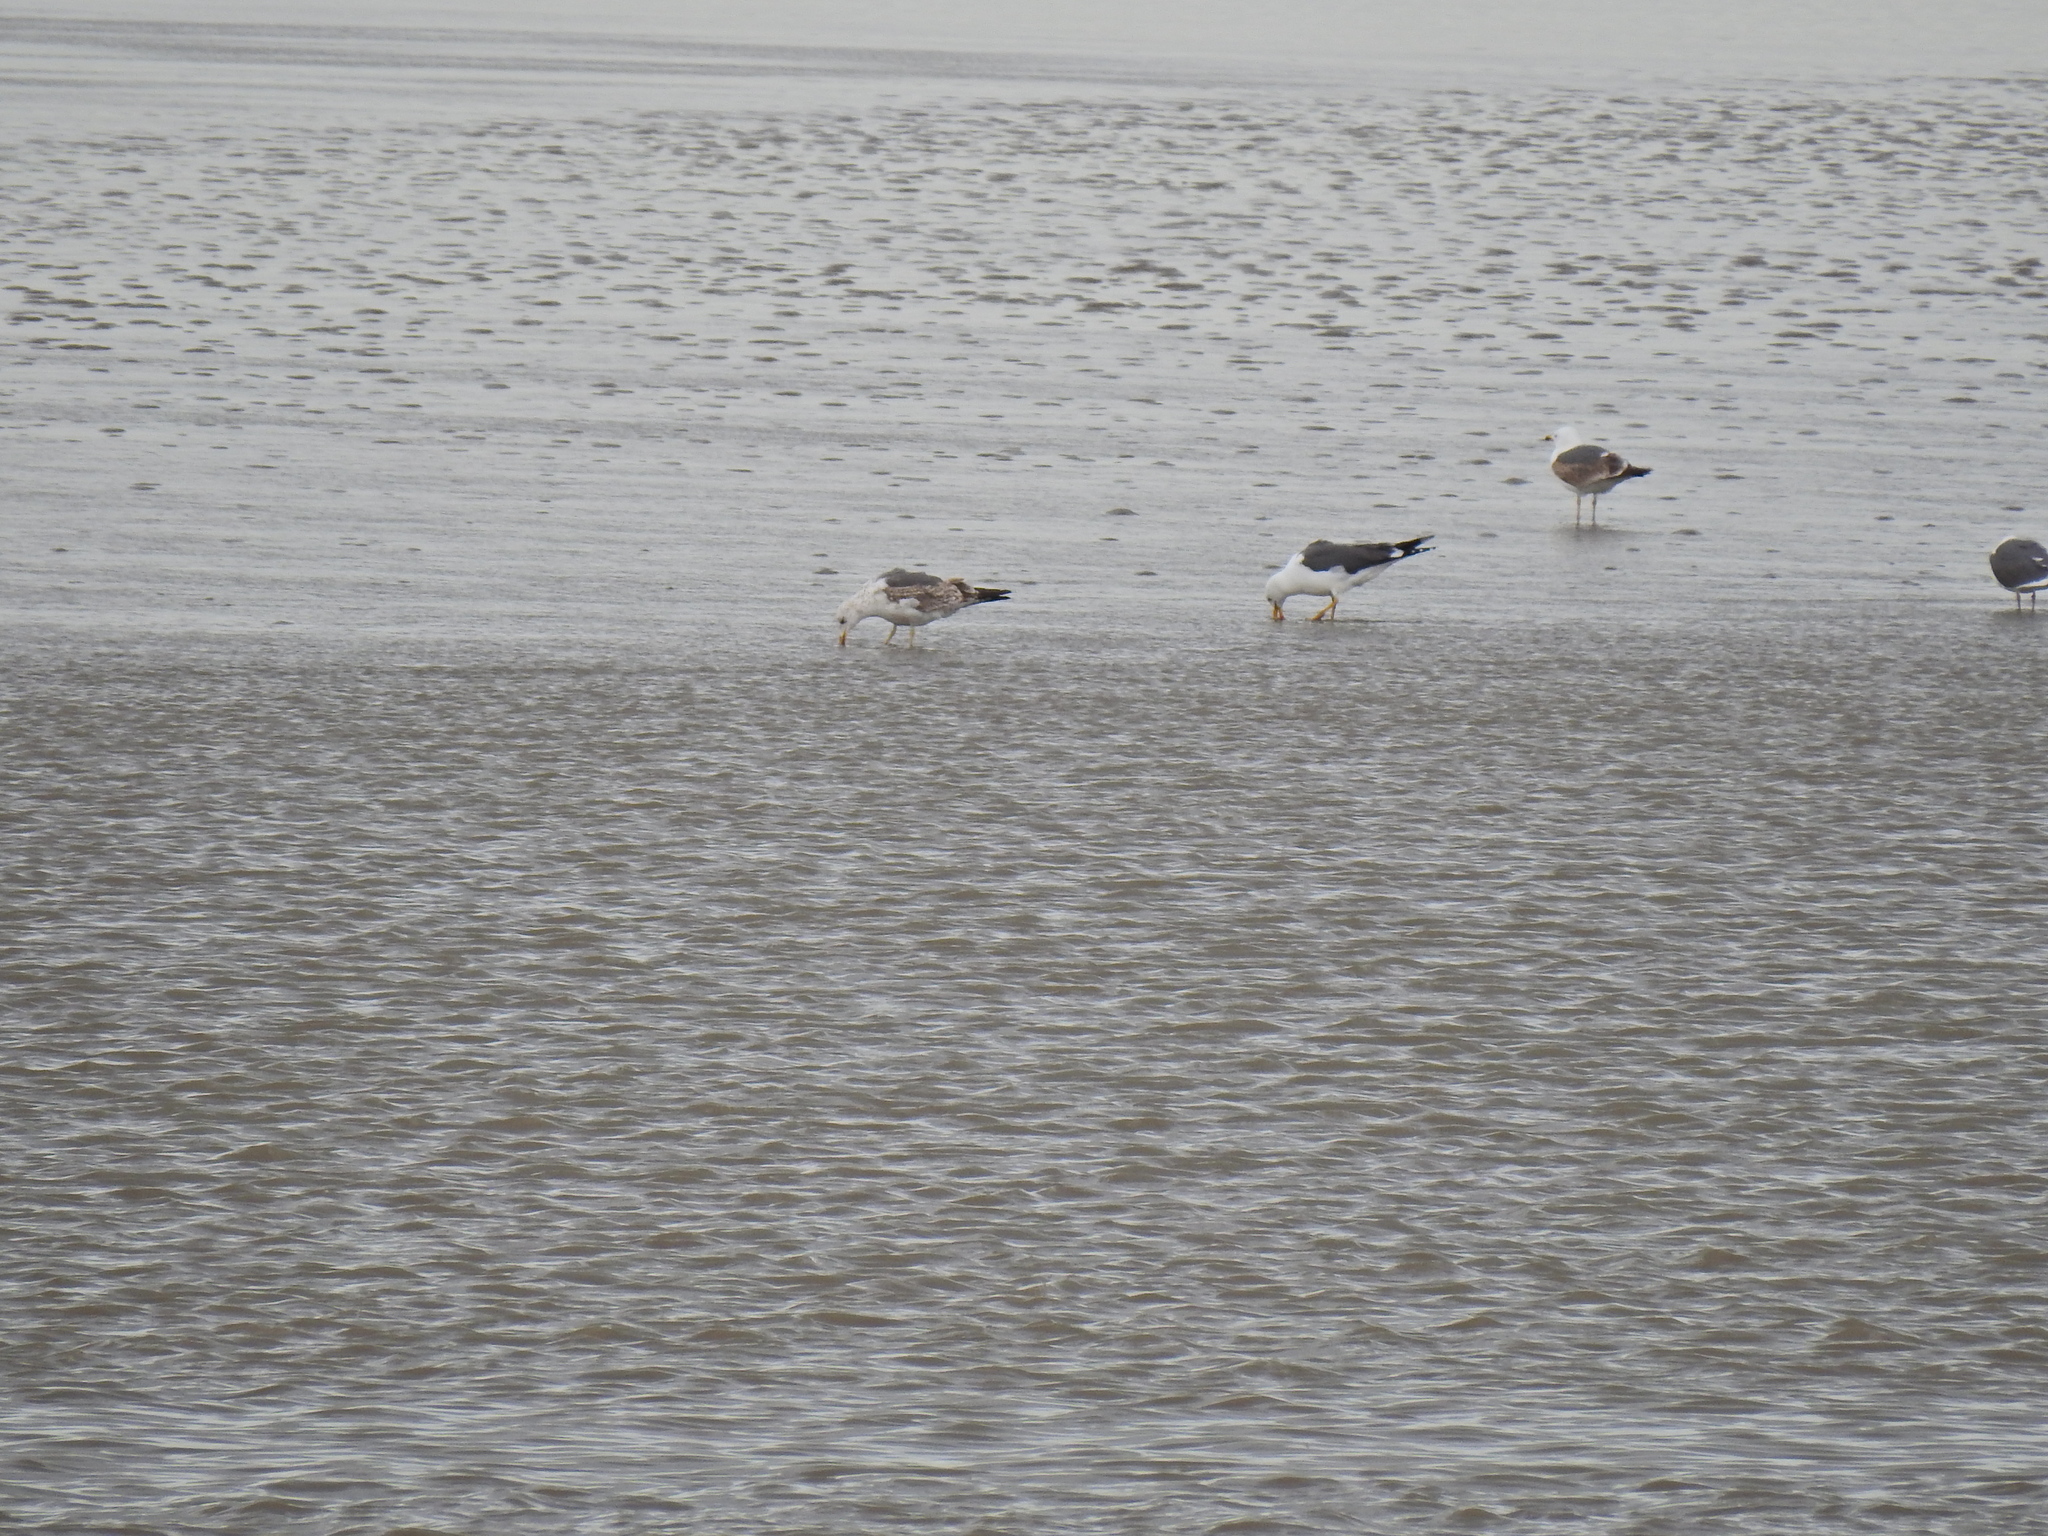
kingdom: Animalia
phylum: Chordata
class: Aves
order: Charadriiformes
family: Laridae
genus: Larus
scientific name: Larus fuscus
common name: Lesser black-backed gull
